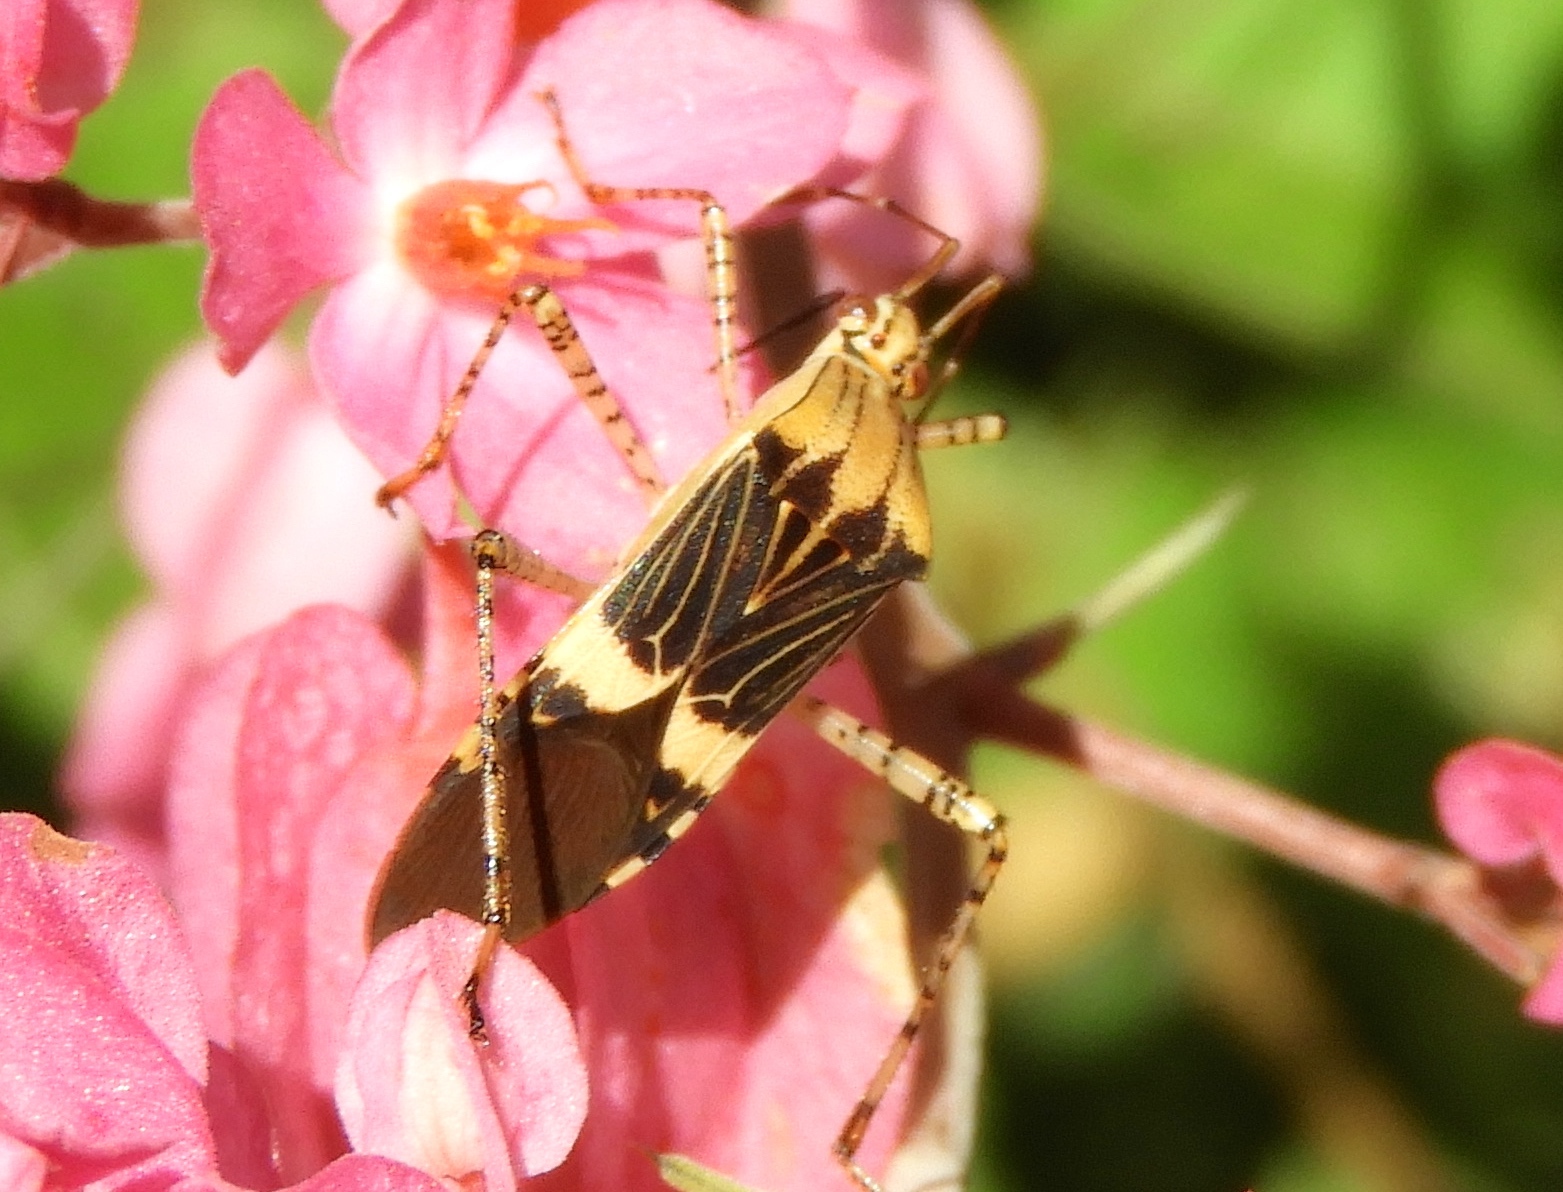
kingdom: Animalia
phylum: Arthropoda
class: Insecta
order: Hemiptera
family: Coreidae
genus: Hypselonotus
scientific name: Hypselonotus lineatus
